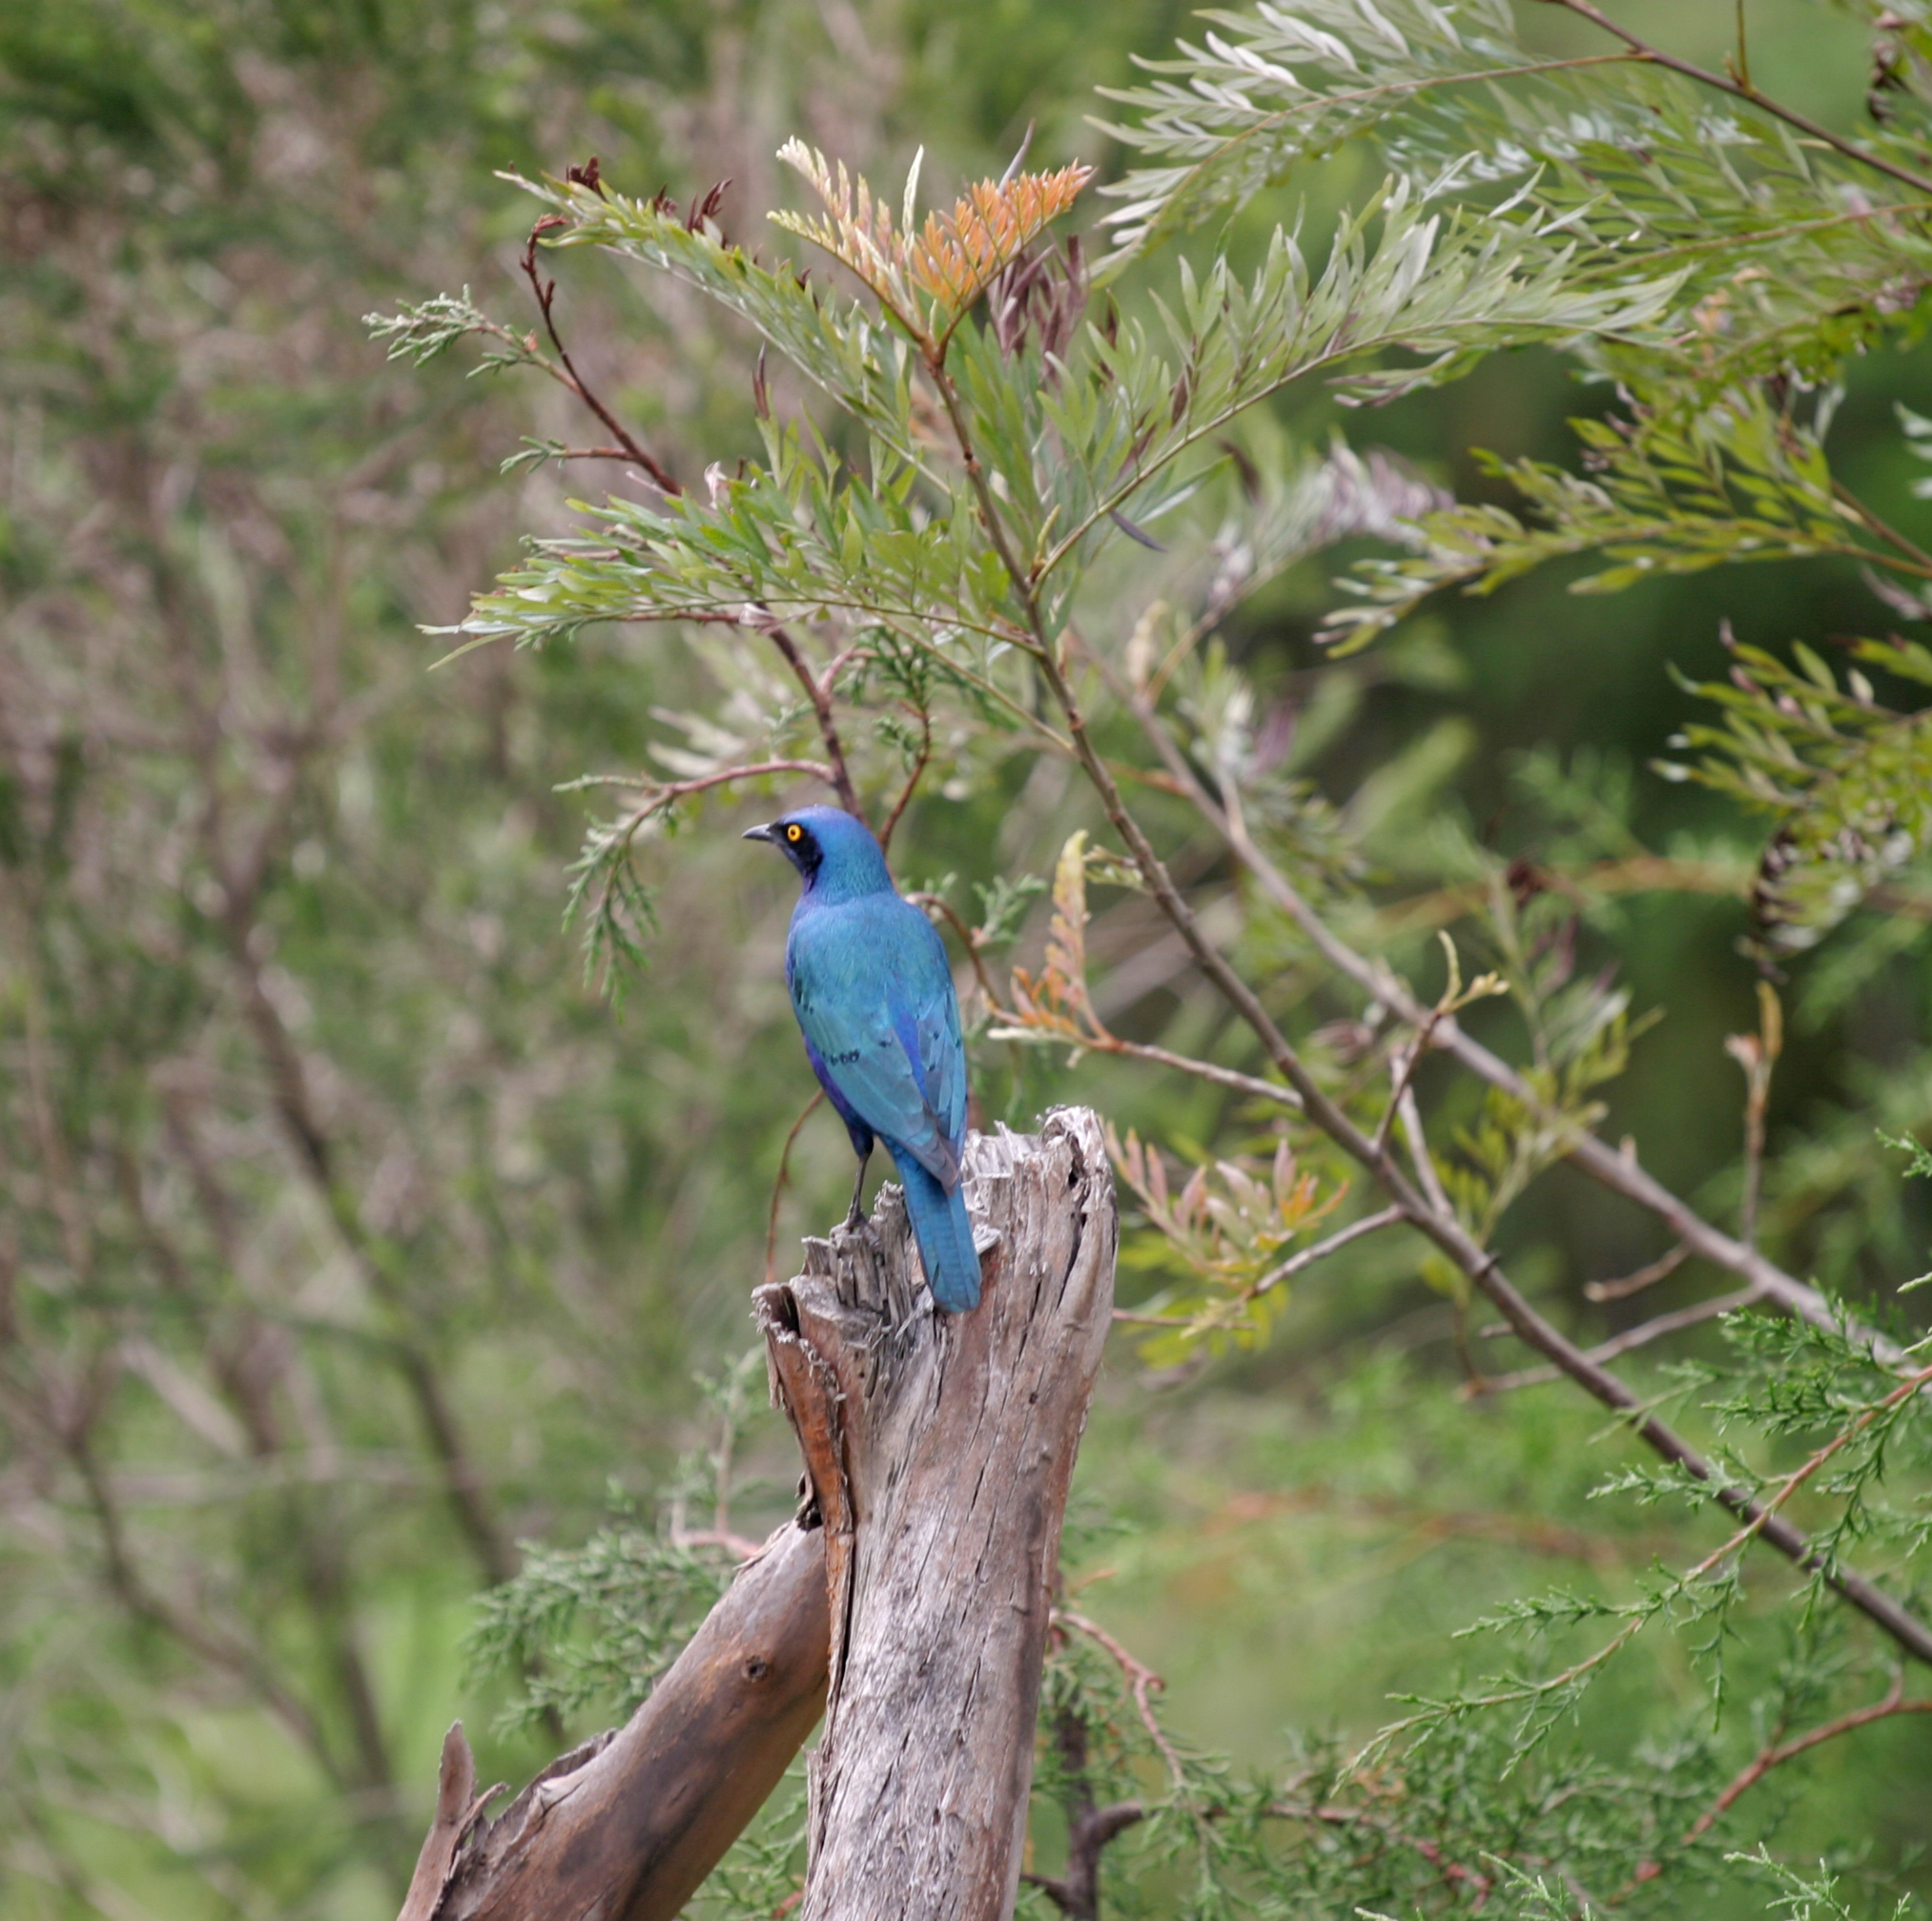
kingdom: Animalia
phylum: Chordata
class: Aves
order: Passeriformes
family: Sturnidae
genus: Lamprotornis
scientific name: Lamprotornis chalybaeus
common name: Greater blue-eared starling
